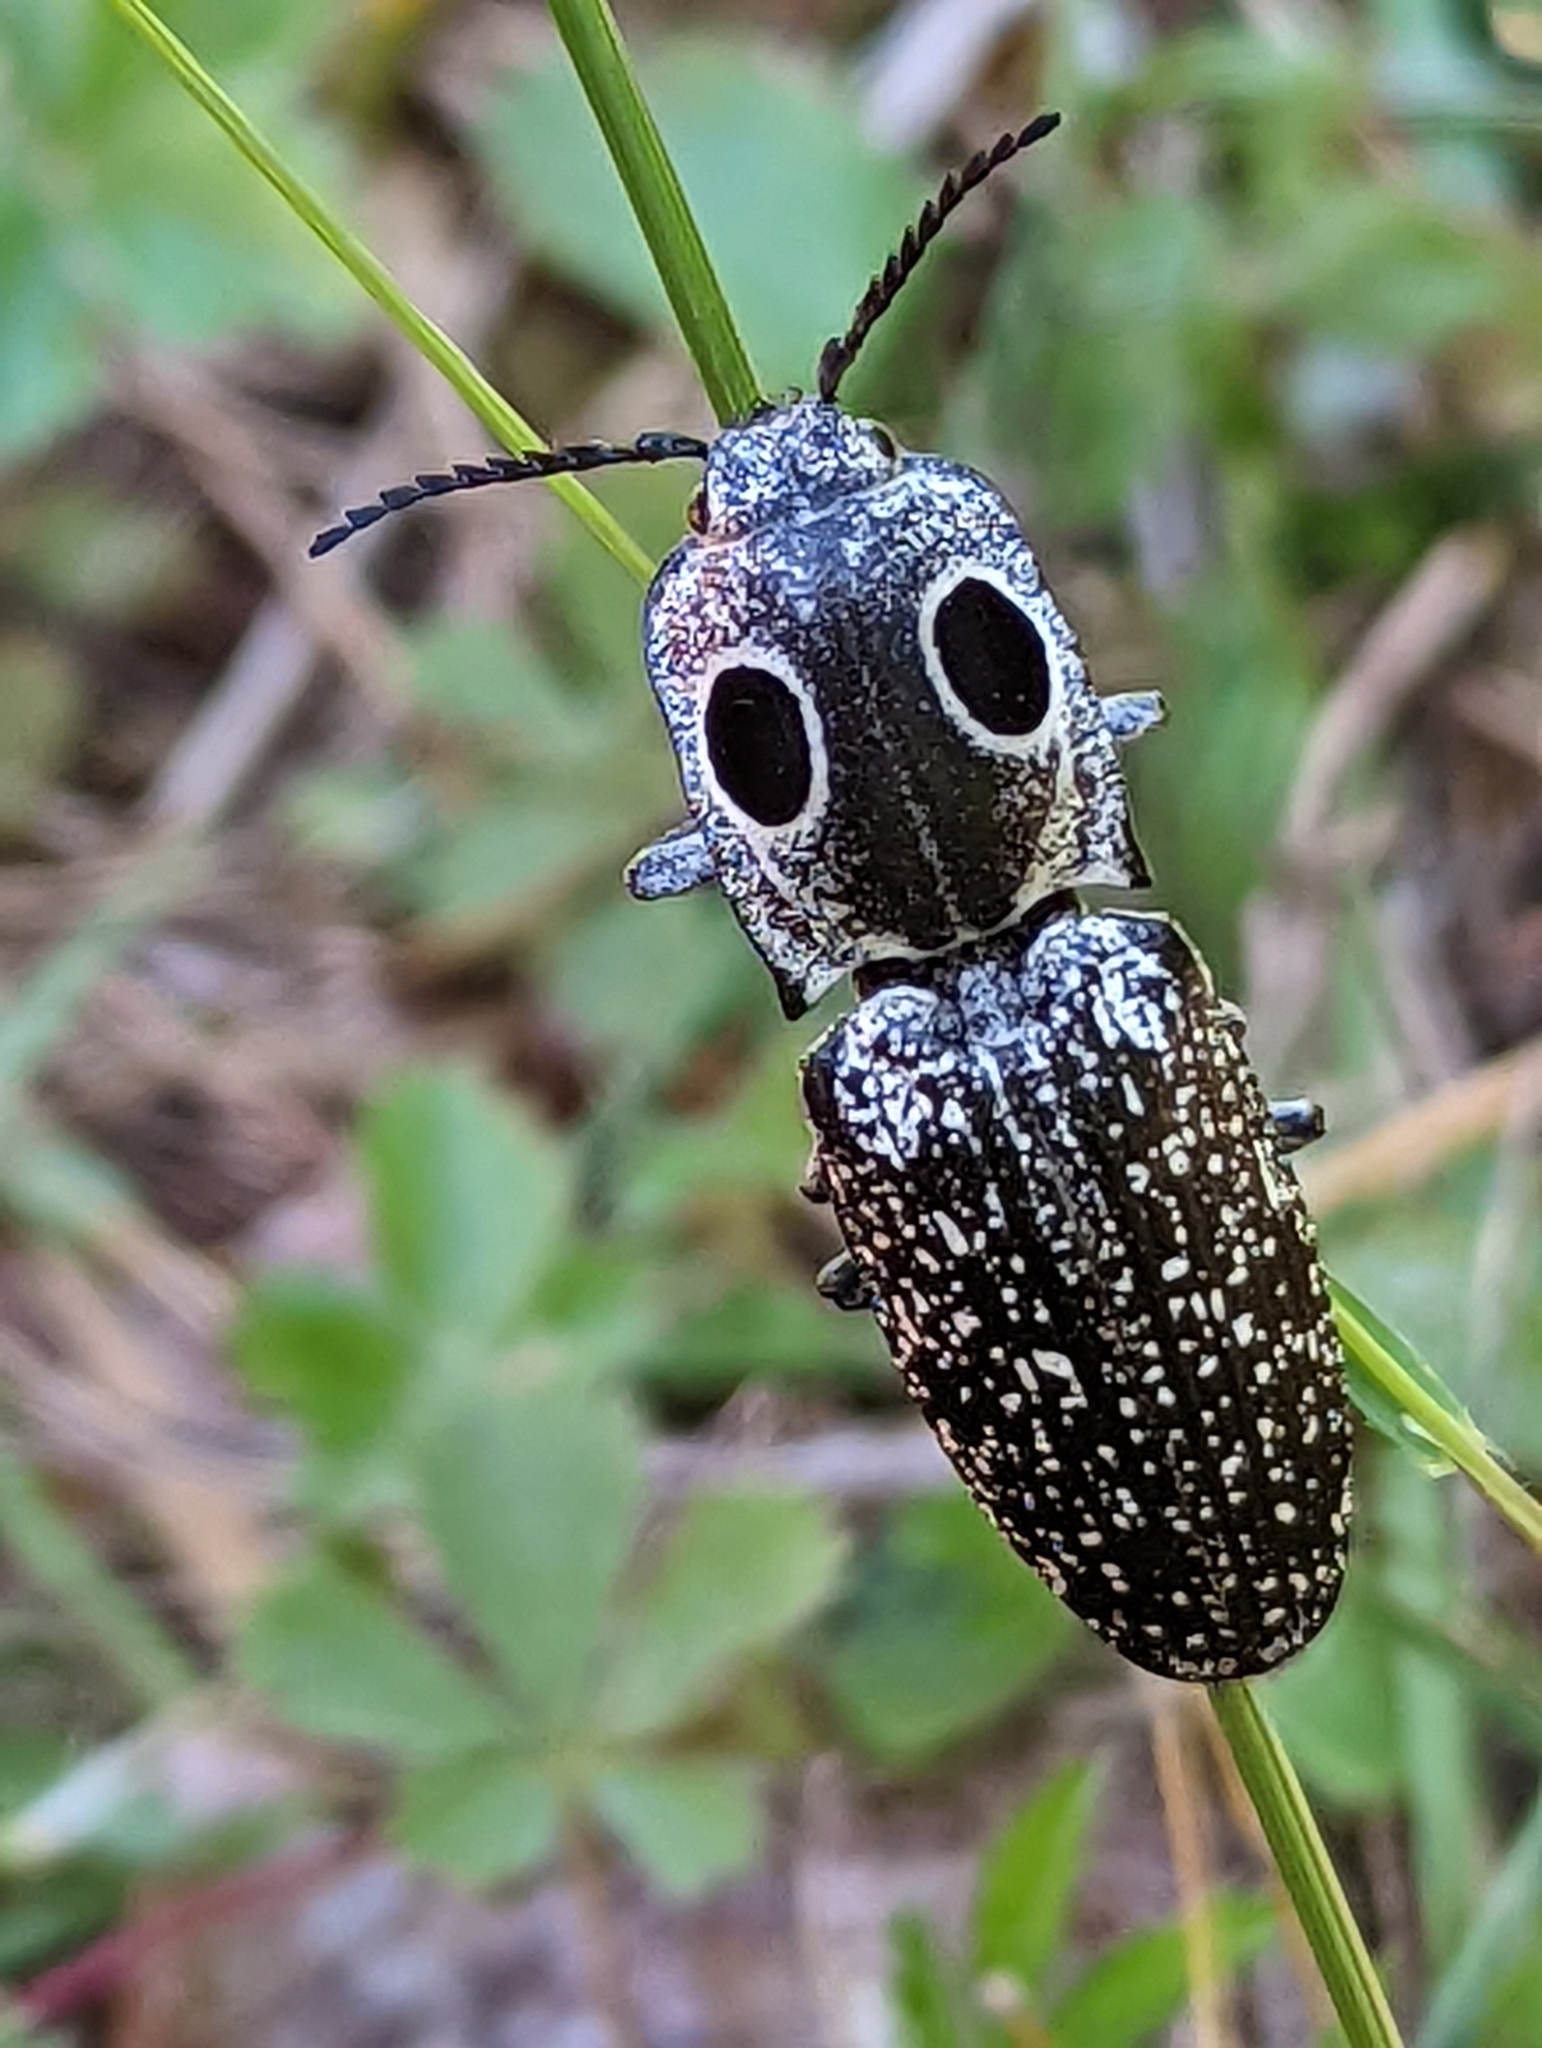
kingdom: Animalia
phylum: Arthropoda
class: Insecta
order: Coleoptera
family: Elateridae
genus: Alaus
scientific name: Alaus oculatus
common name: Eastern eyed click beetle
